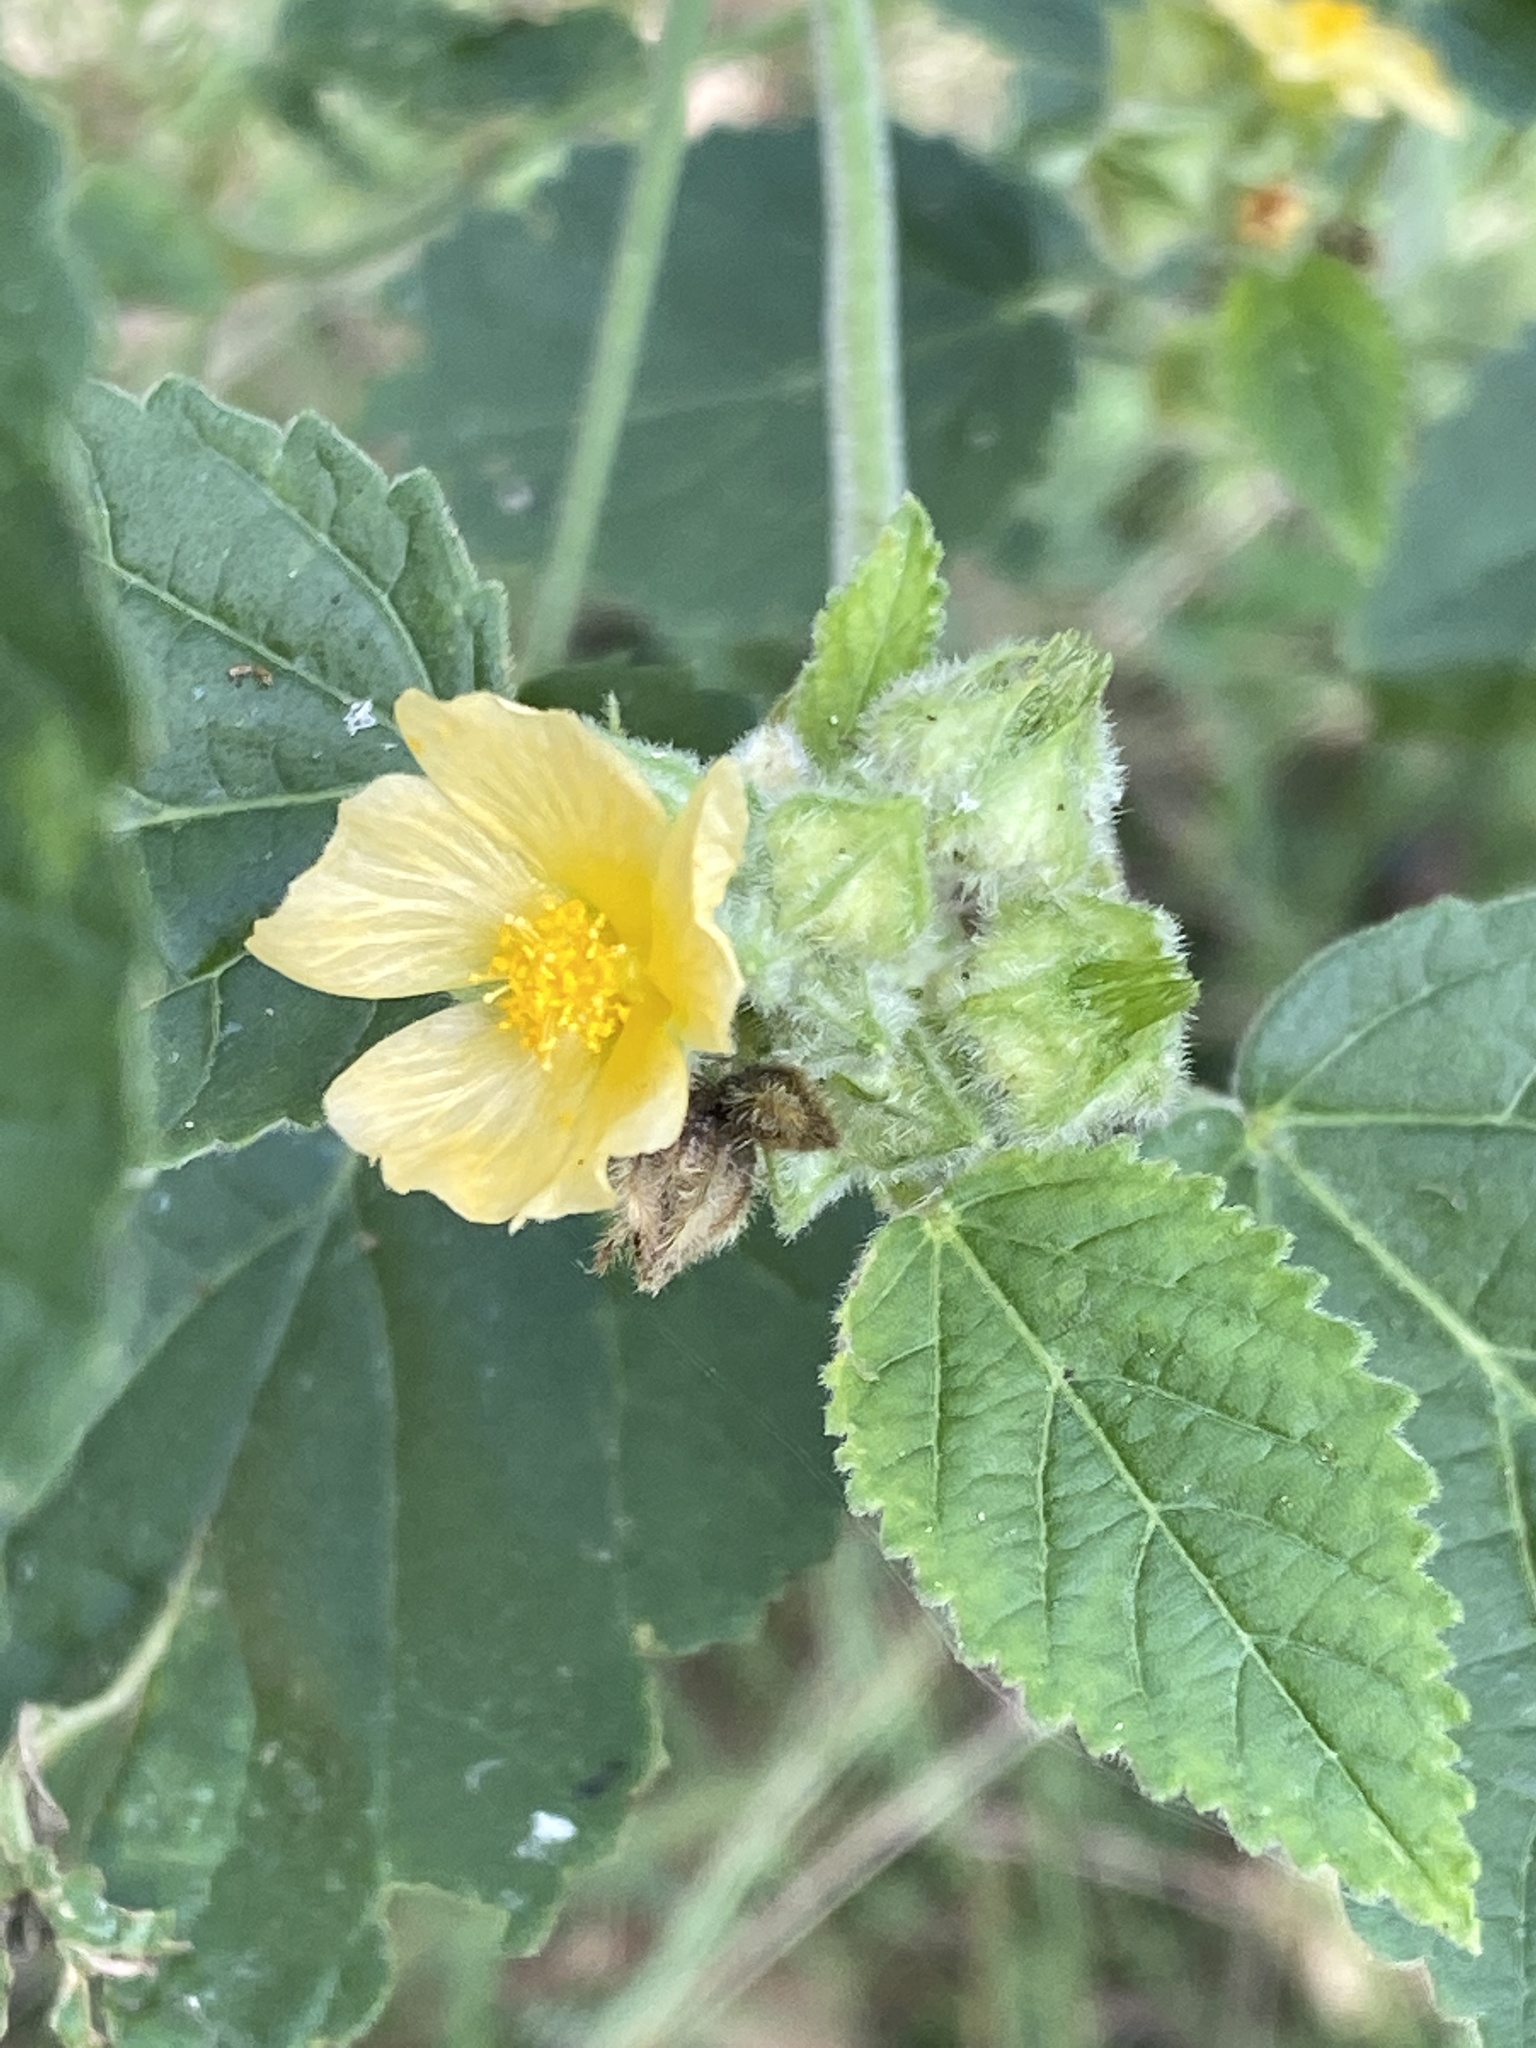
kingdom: Plantae
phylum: Tracheophyta
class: Magnoliopsida
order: Malvales
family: Malvaceae
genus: Sida
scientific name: Sida cordifolia
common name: Ilima
